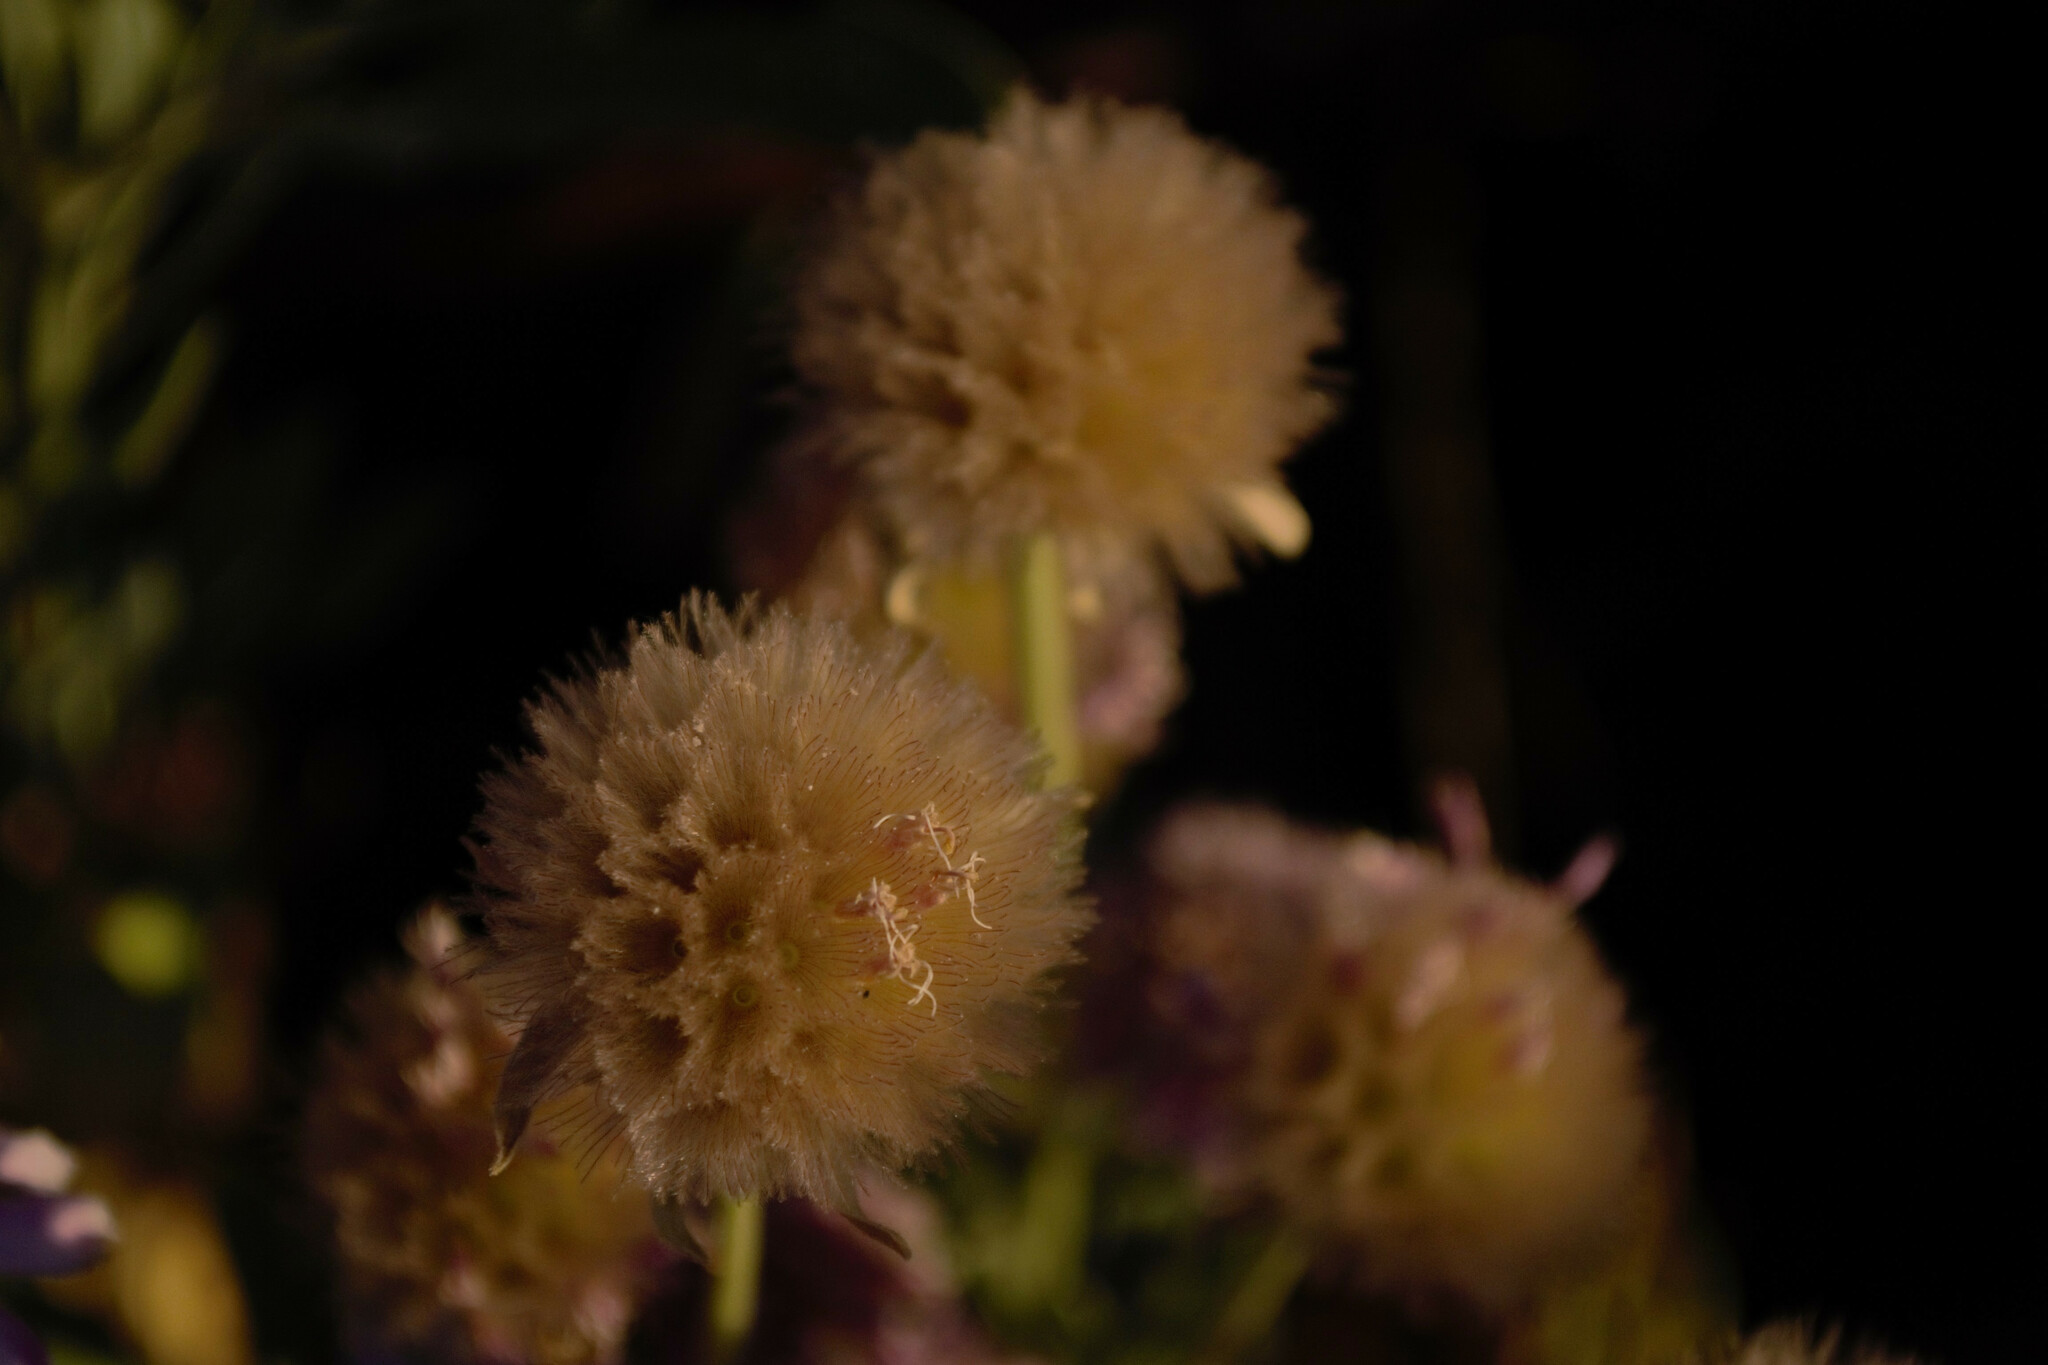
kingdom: Plantae
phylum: Tracheophyta
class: Magnoliopsida
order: Dipsacales
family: Caprifoliaceae
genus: Pterocephalus
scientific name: Pterocephalus lasiospermus
